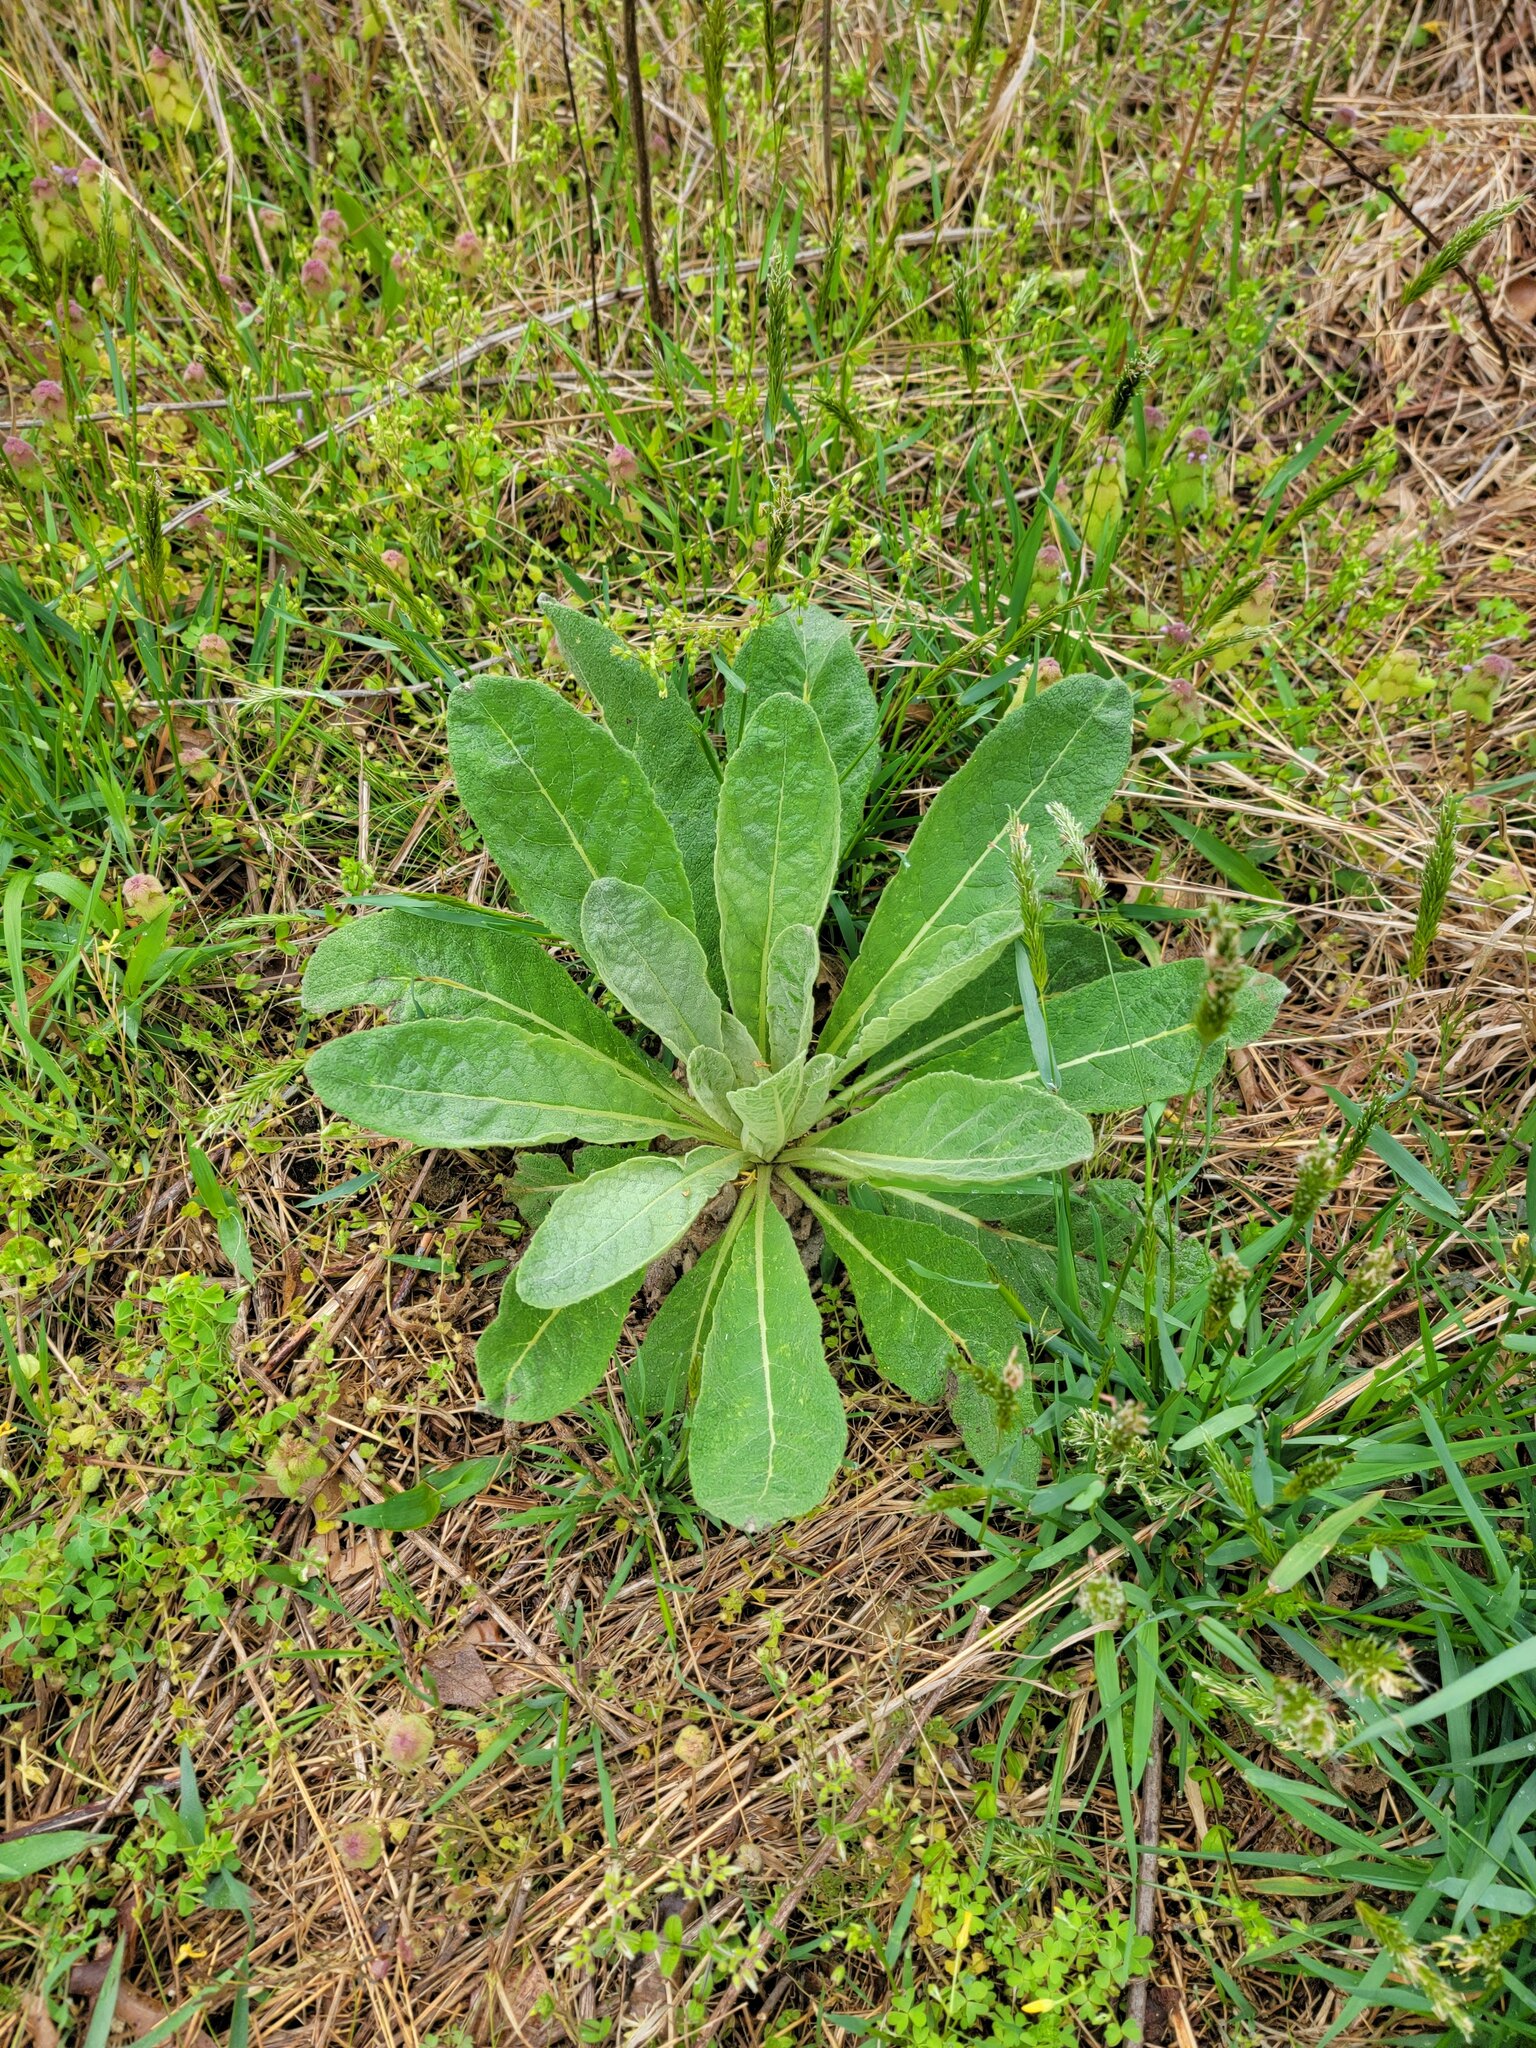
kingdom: Plantae
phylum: Tracheophyta
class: Magnoliopsida
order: Lamiales
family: Scrophulariaceae
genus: Verbascum
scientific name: Verbascum thapsus
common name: Common mullein
